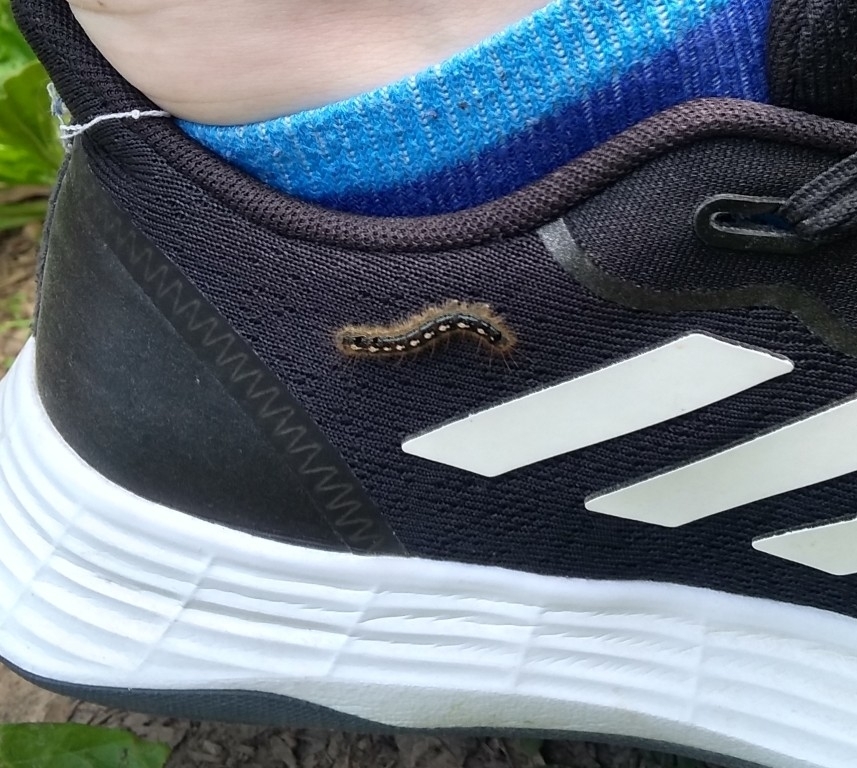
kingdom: Animalia
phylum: Arthropoda
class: Insecta
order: Lepidoptera
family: Lasiocampidae
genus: Malacosoma
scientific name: Malacosoma disstria
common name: Forest tent caterpillar
